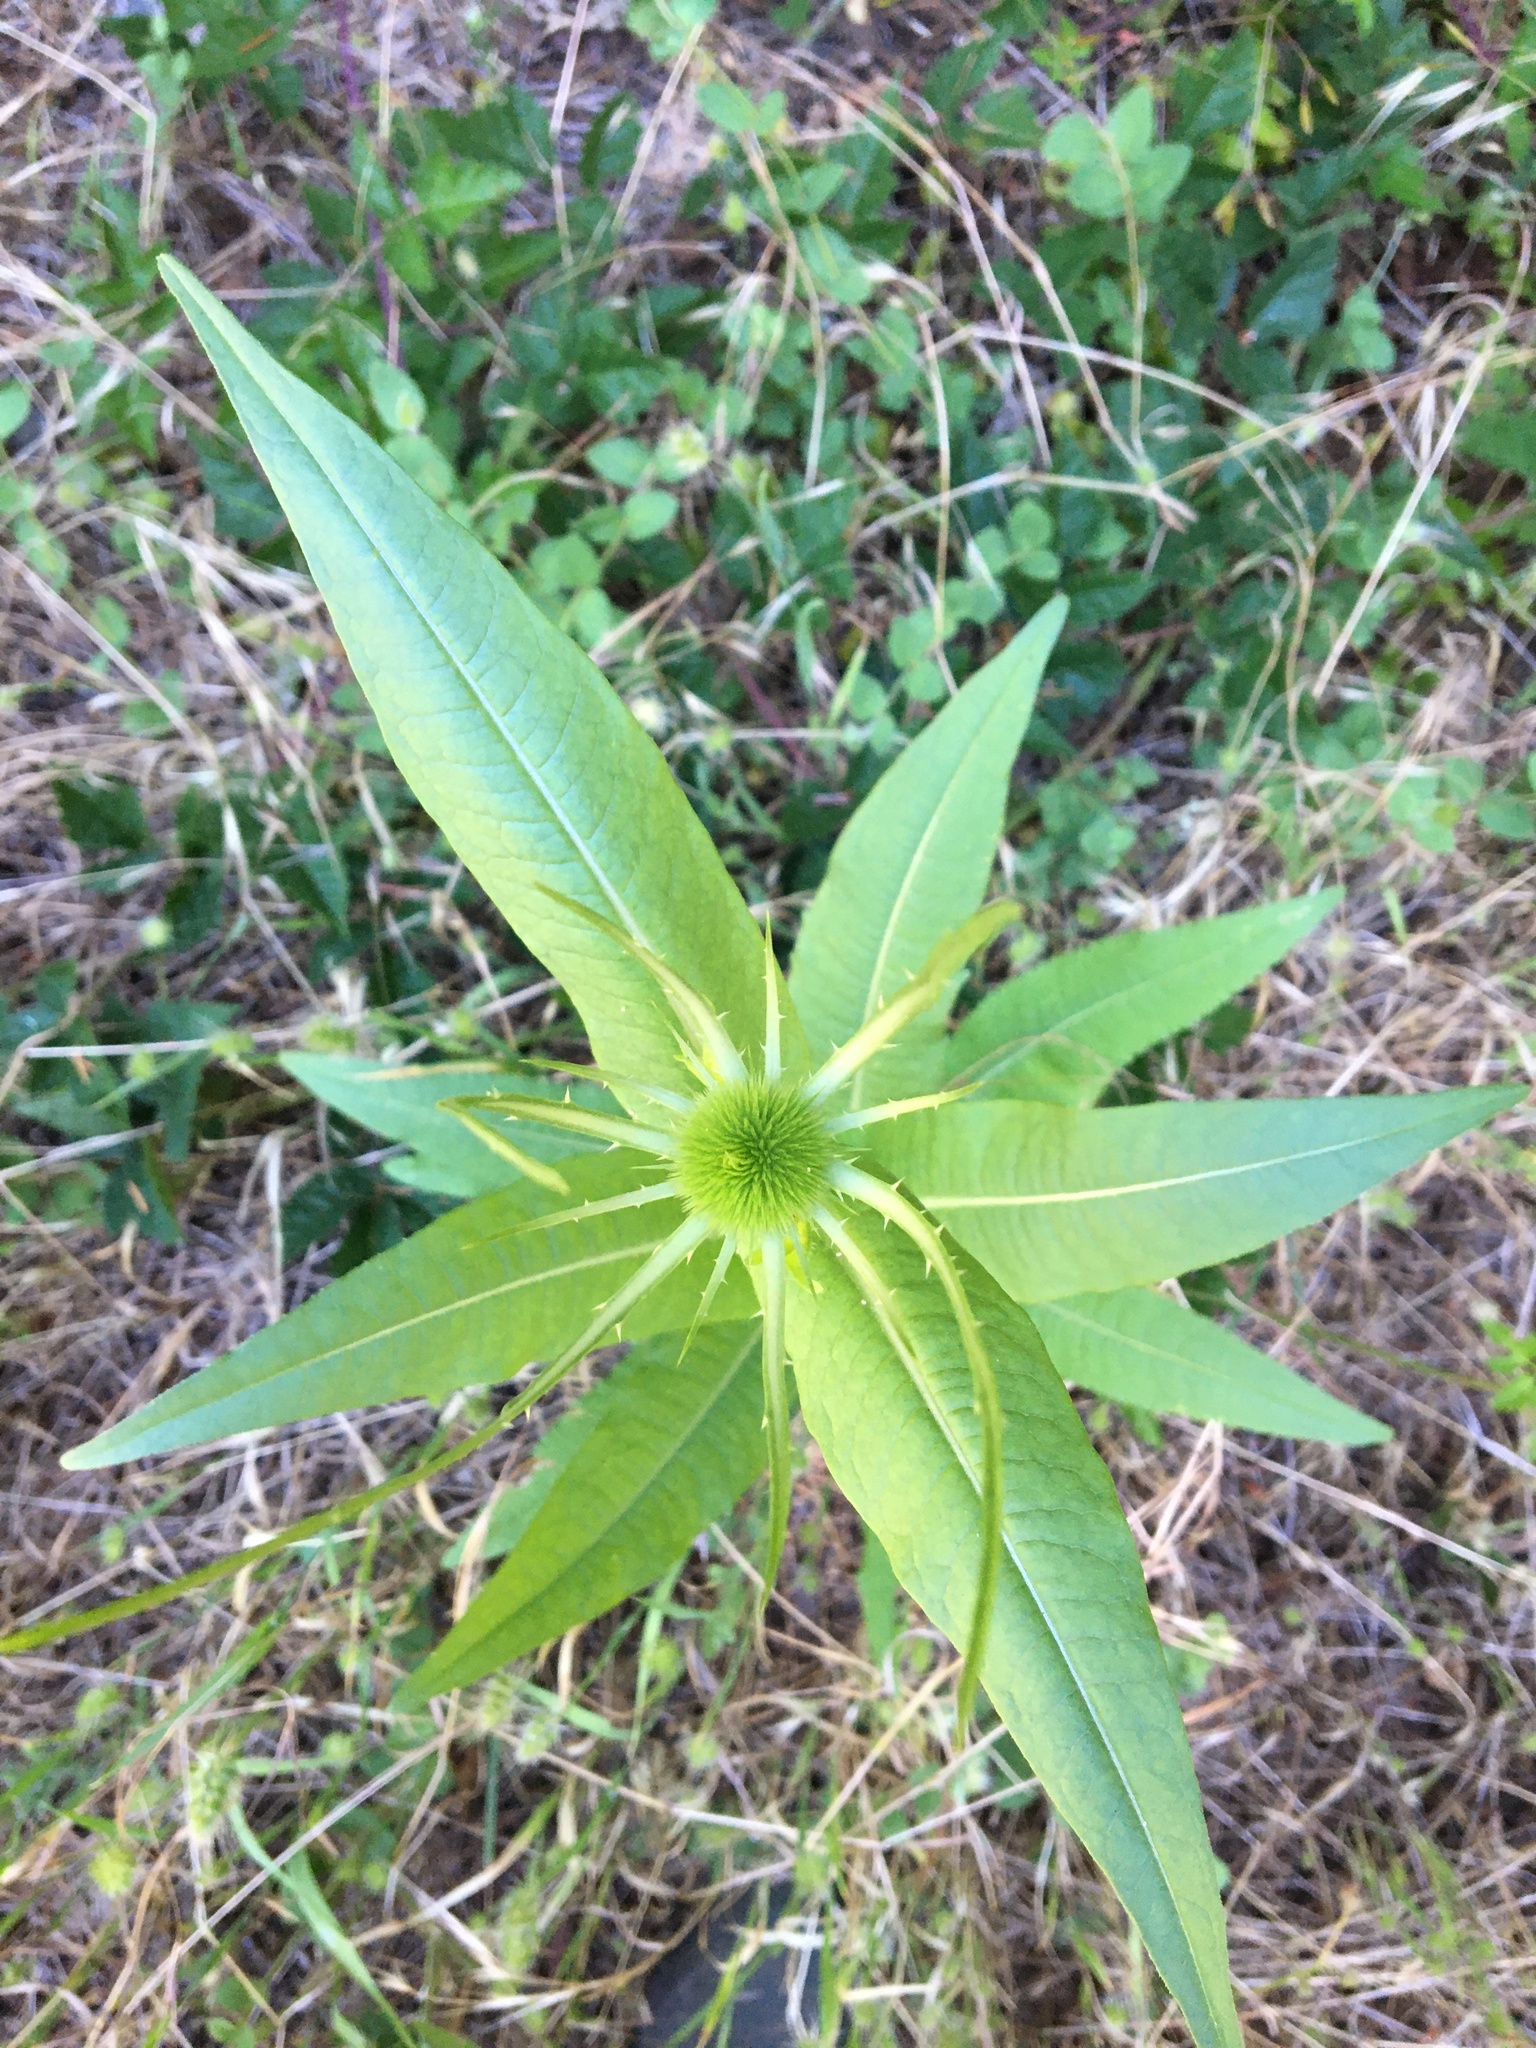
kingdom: Plantae
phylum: Tracheophyta
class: Magnoliopsida
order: Dipsacales
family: Caprifoliaceae
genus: Dipsacus
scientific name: Dipsacus fullonum
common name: Teasel
